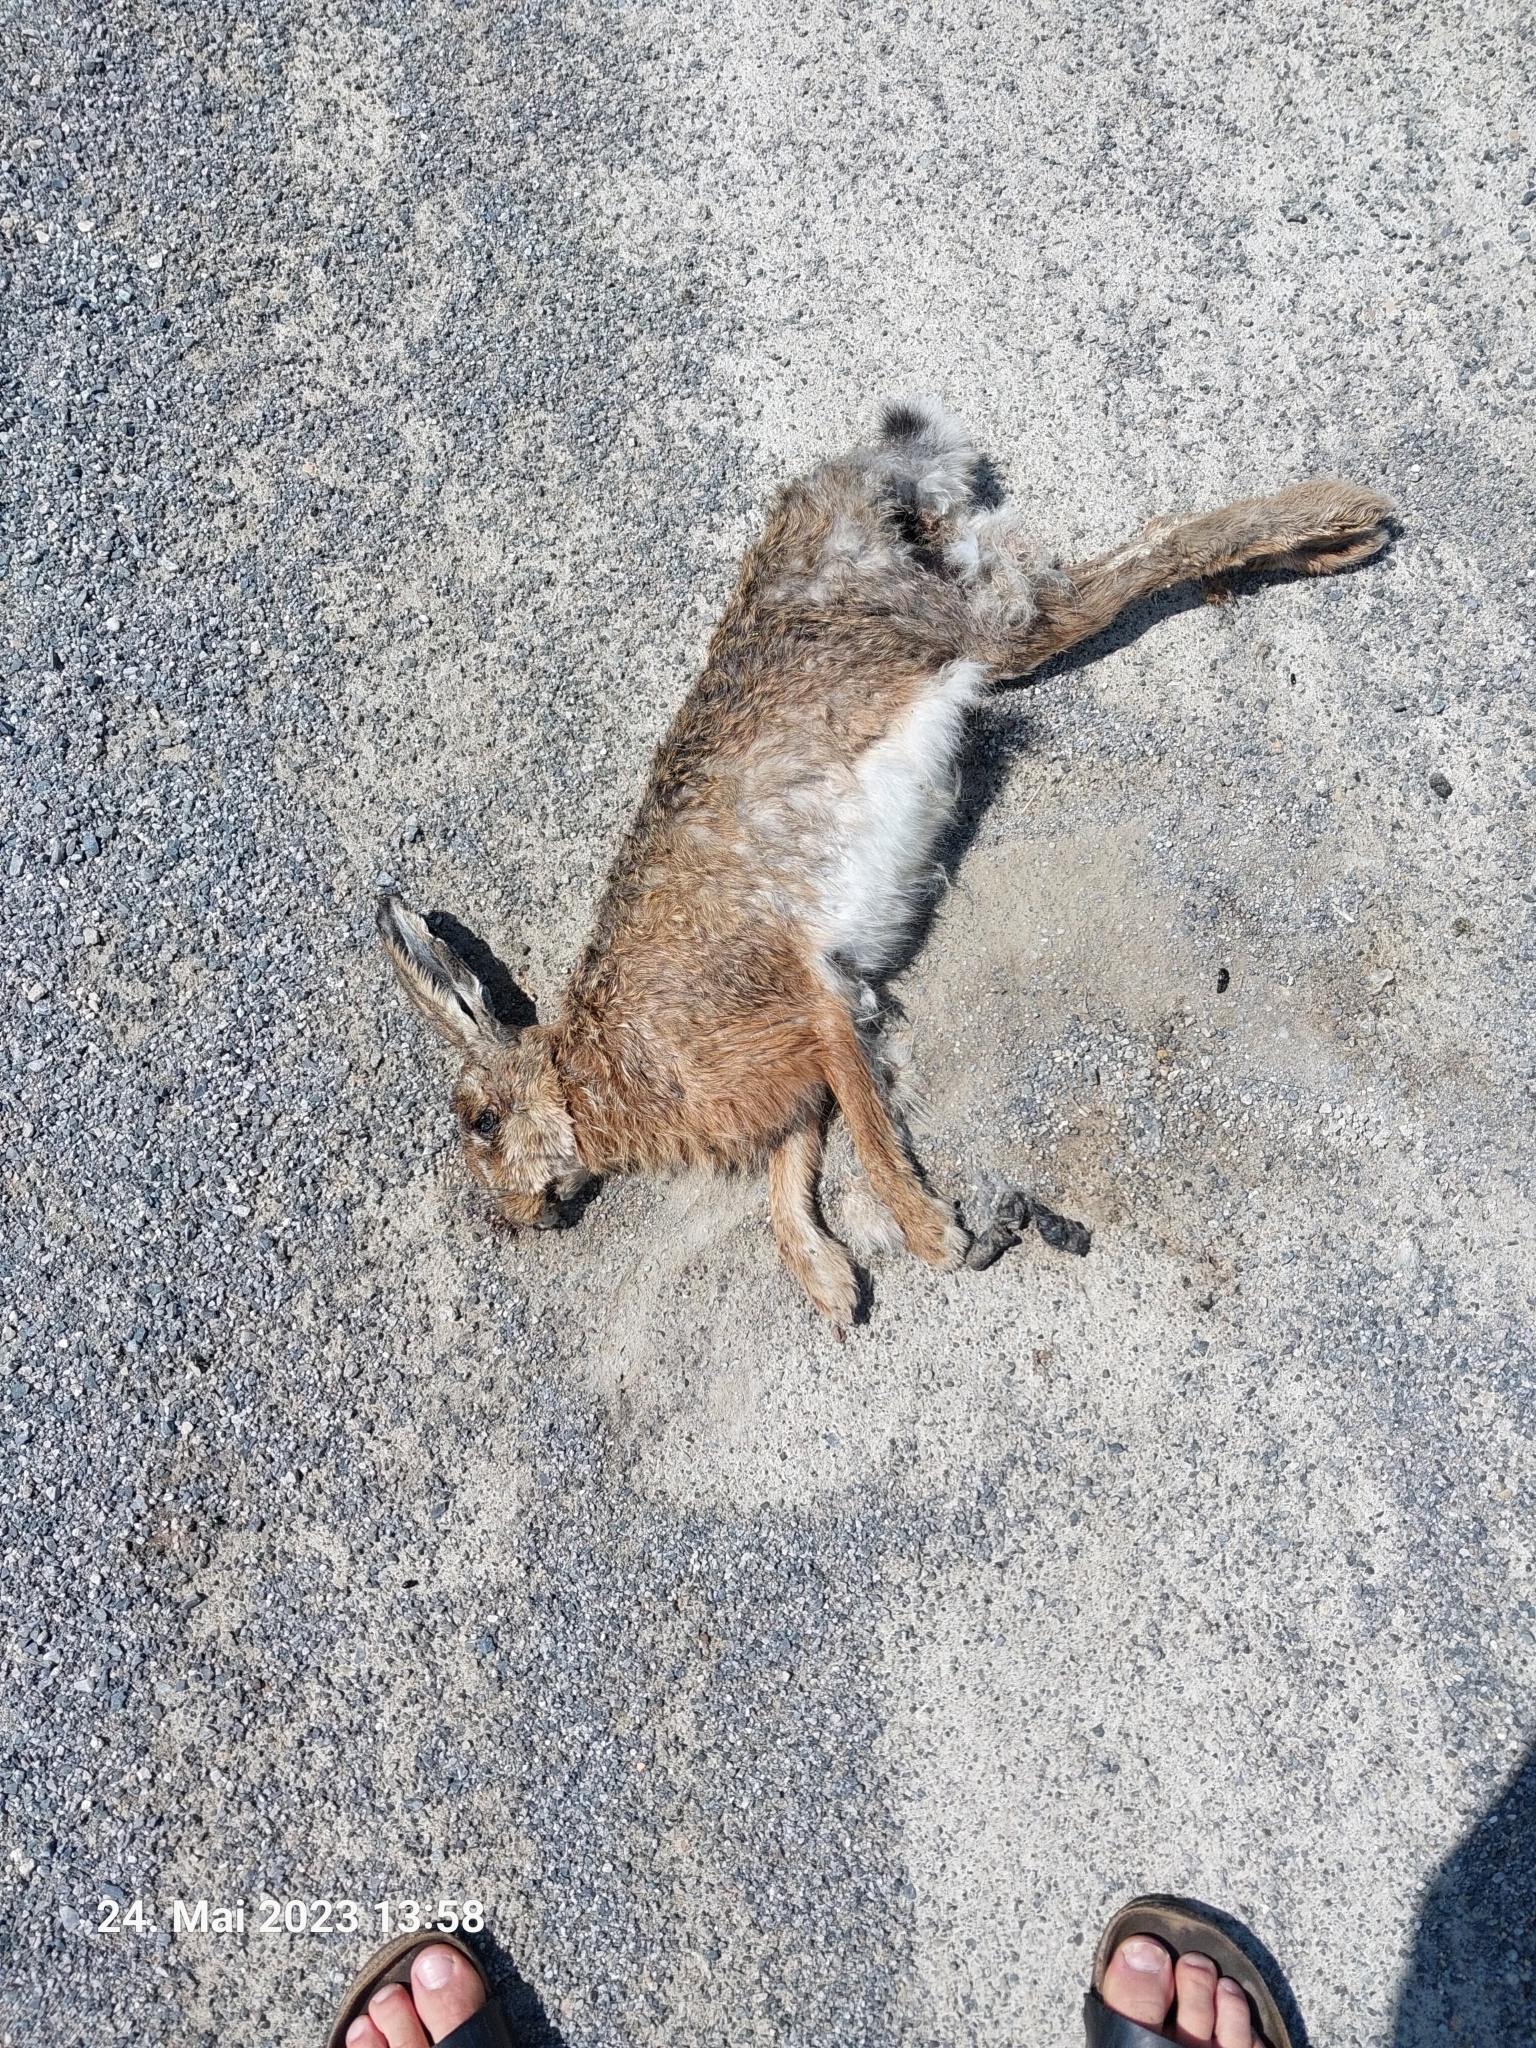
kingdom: Animalia
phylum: Chordata
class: Mammalia
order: Lagomorpha
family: Leporidae
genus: Lepus
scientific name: Lepus europaeus
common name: European hare
